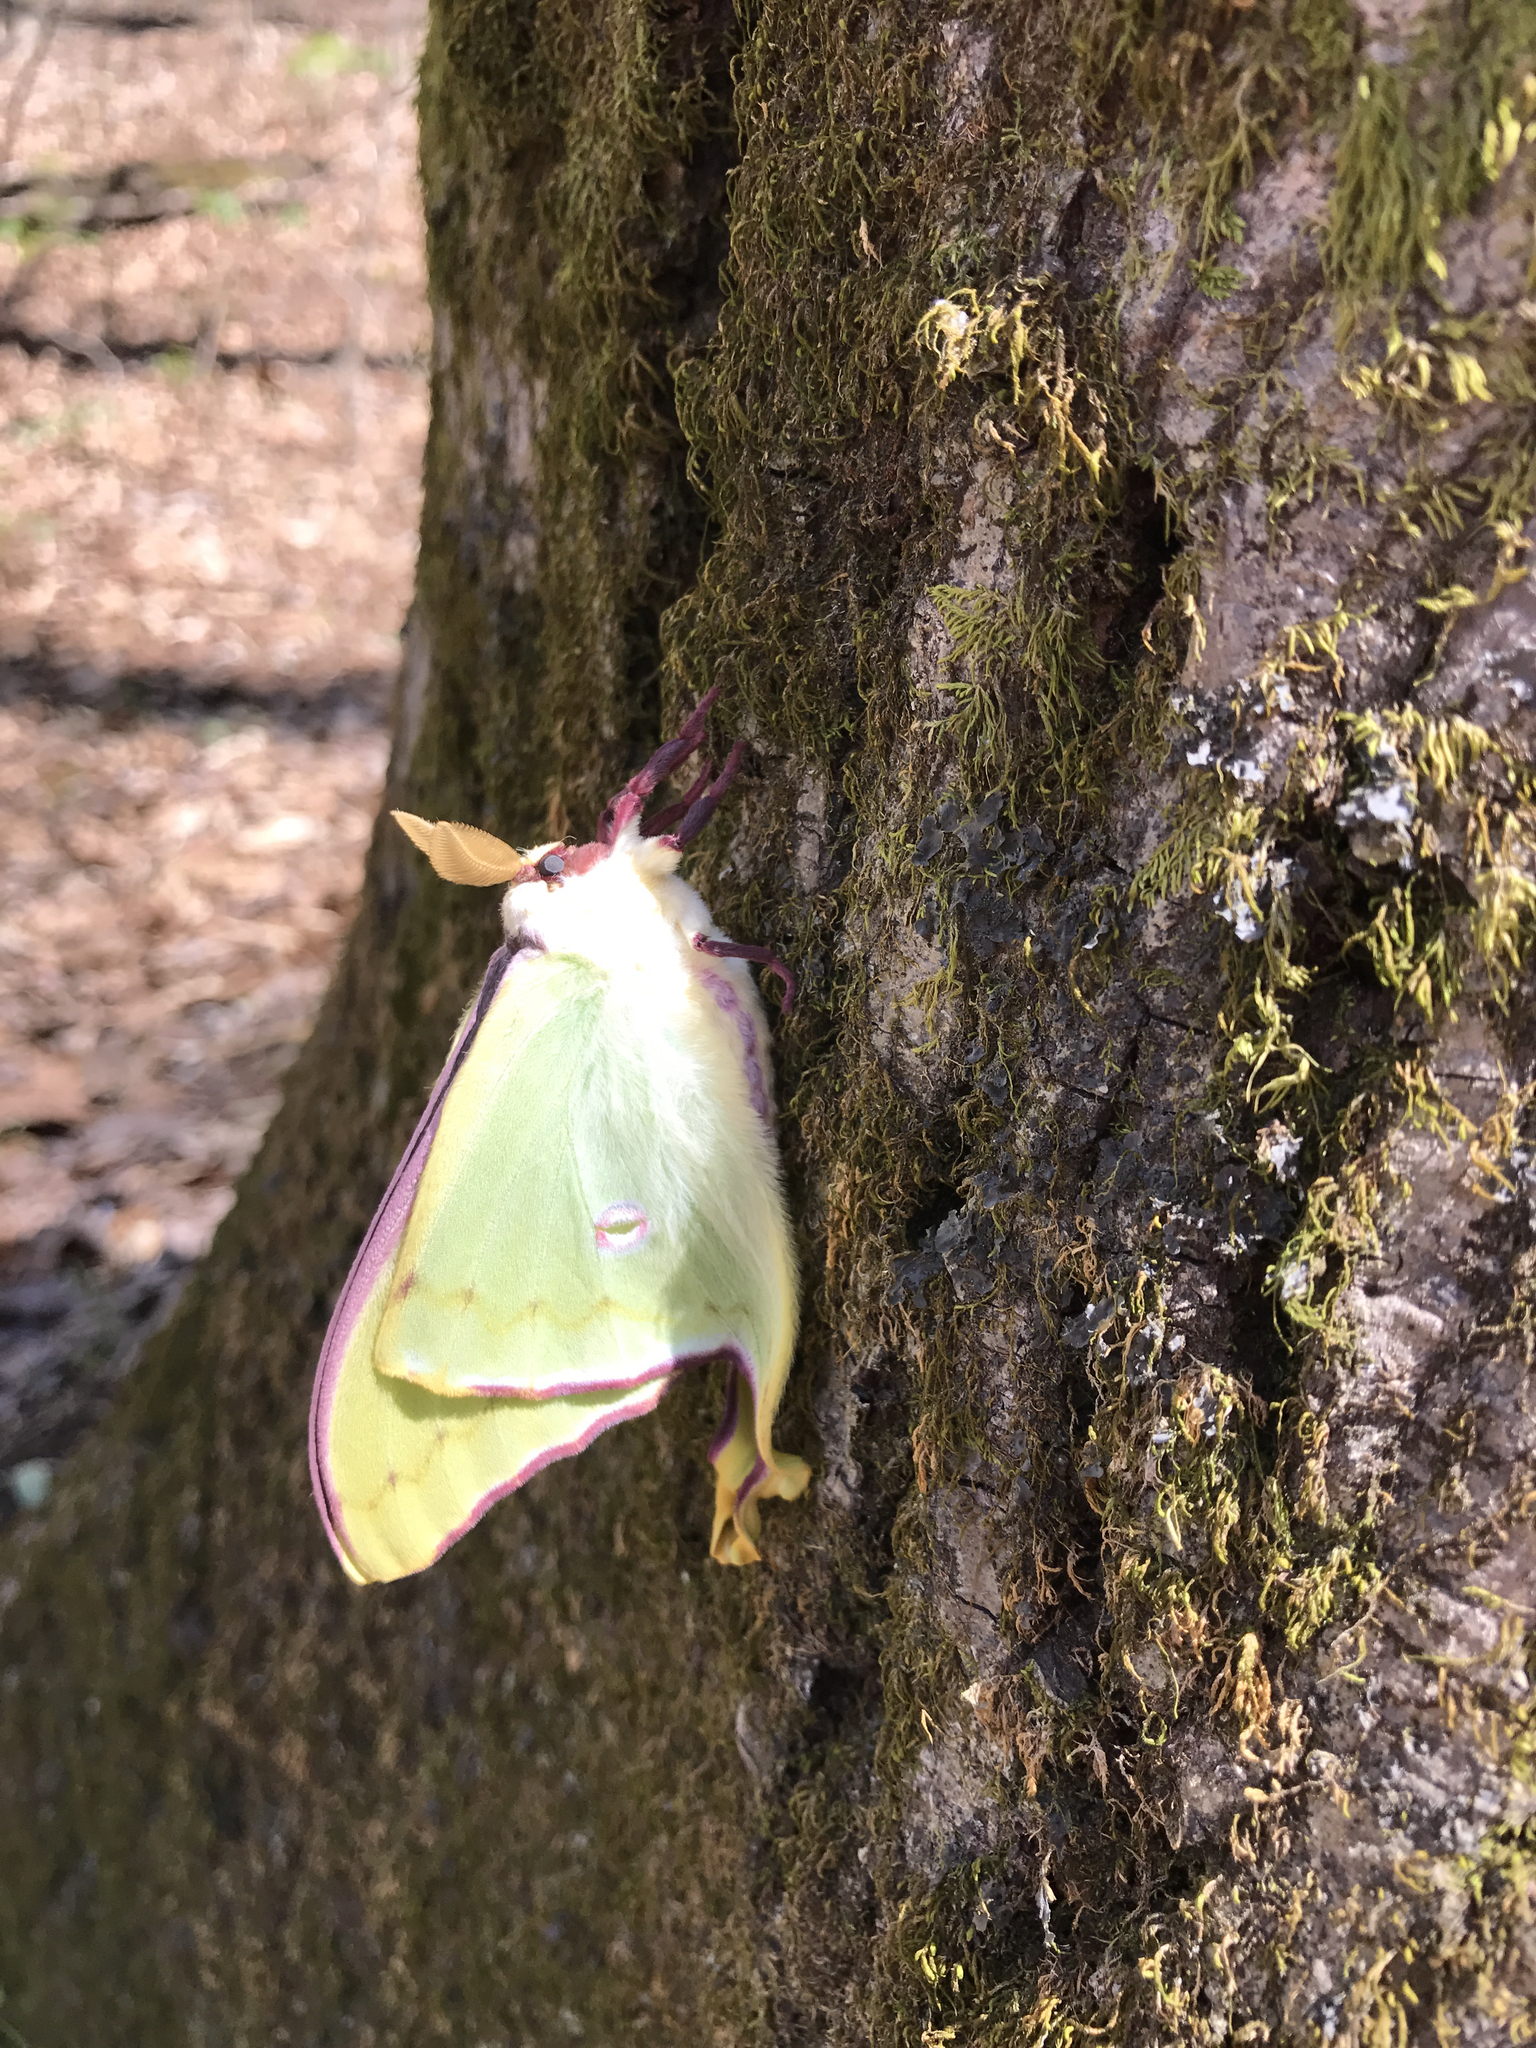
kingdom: Animalia
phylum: Arthropoda
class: Insecta
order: Lepidoptera
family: Saturniidae
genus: Actias
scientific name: Actias luna
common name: Luna moth
